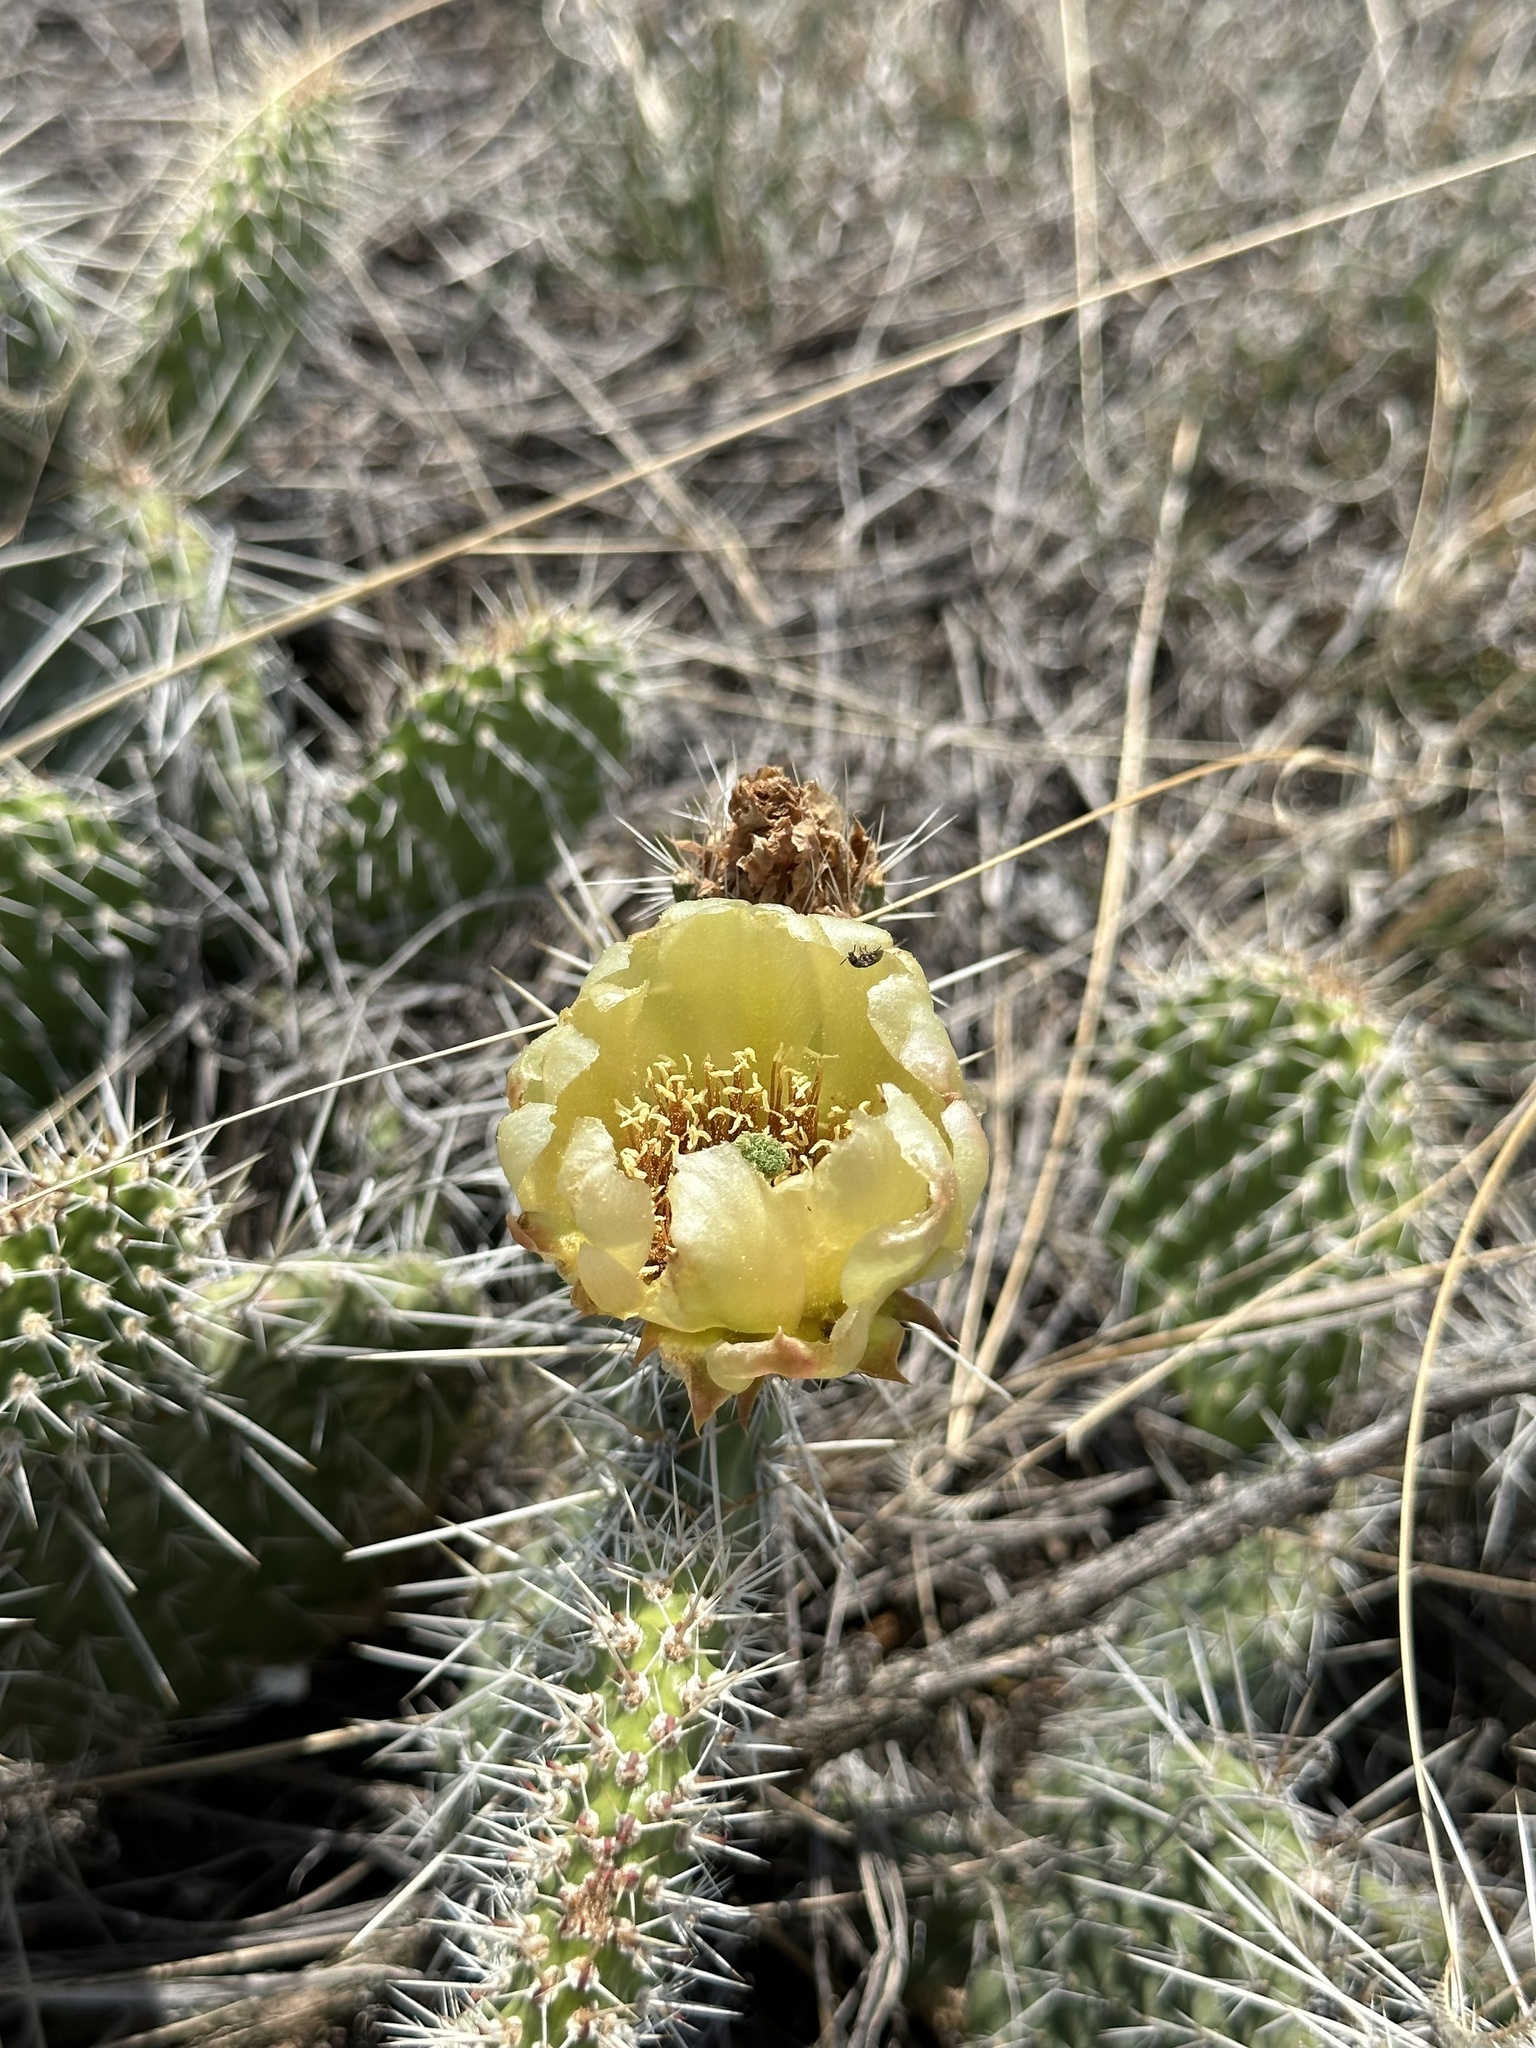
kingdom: Plantae
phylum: Tracheophyta
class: Magnoliopsida
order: Caryophyllales
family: Cactaceae
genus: Opuntia
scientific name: Opuntia polyacantha
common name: Plains prickly-pear
